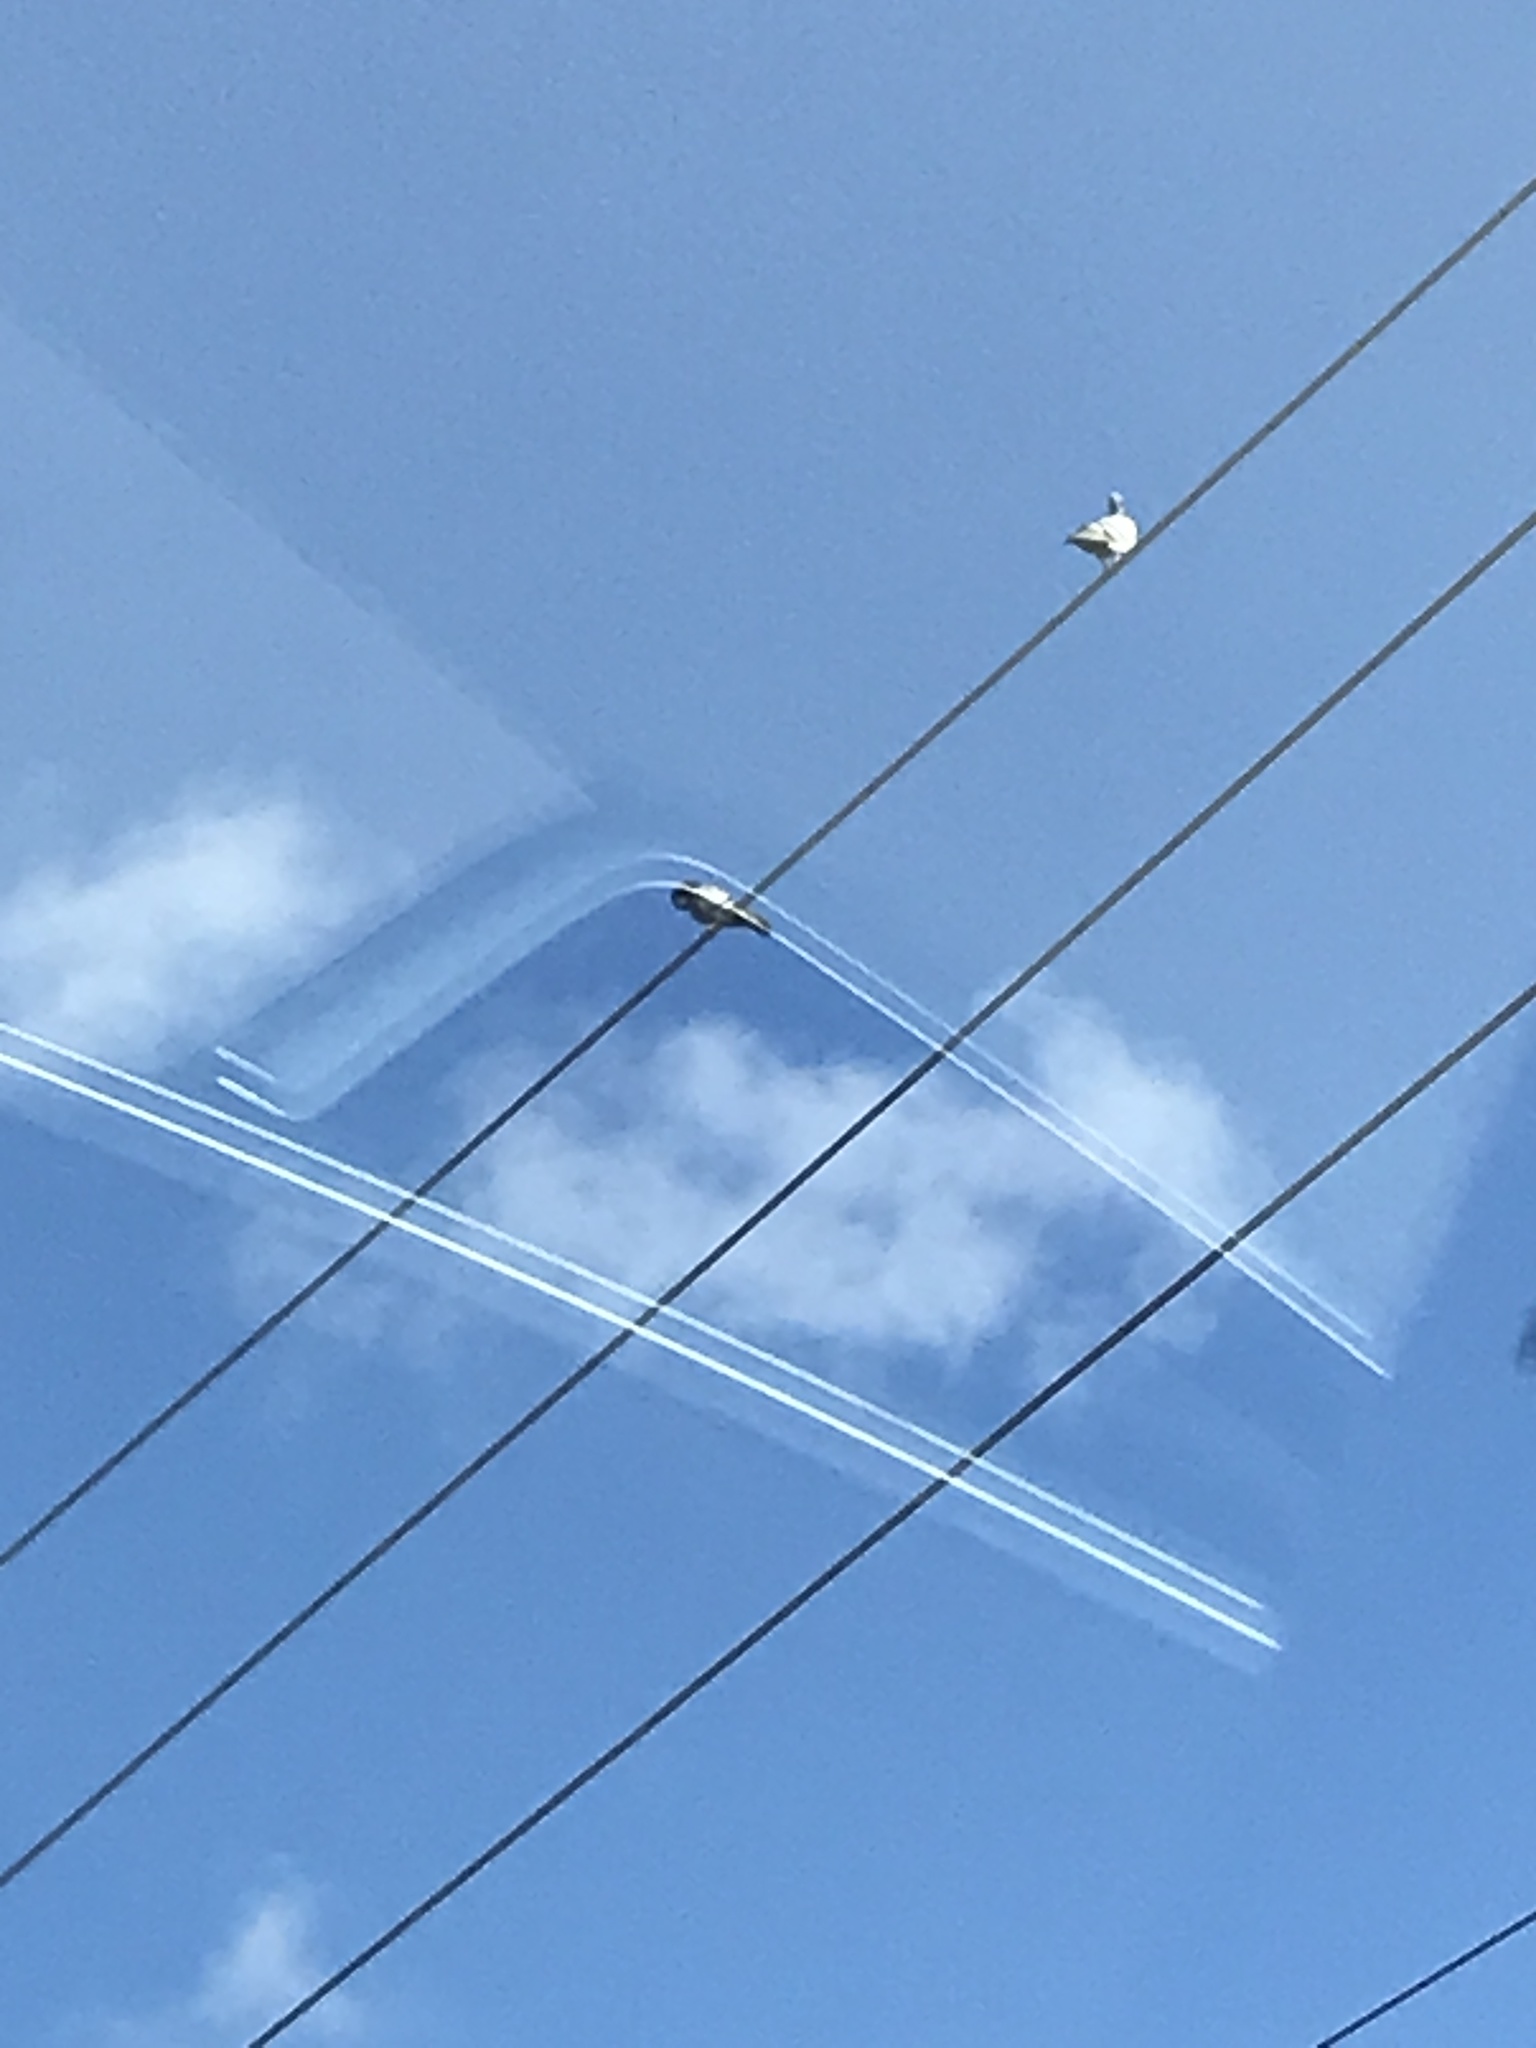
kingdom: Animalia
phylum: Chordata
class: Aves
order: Columbiformes
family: Columbidae
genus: Columba
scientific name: Columba livia
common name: Rock pigeon
